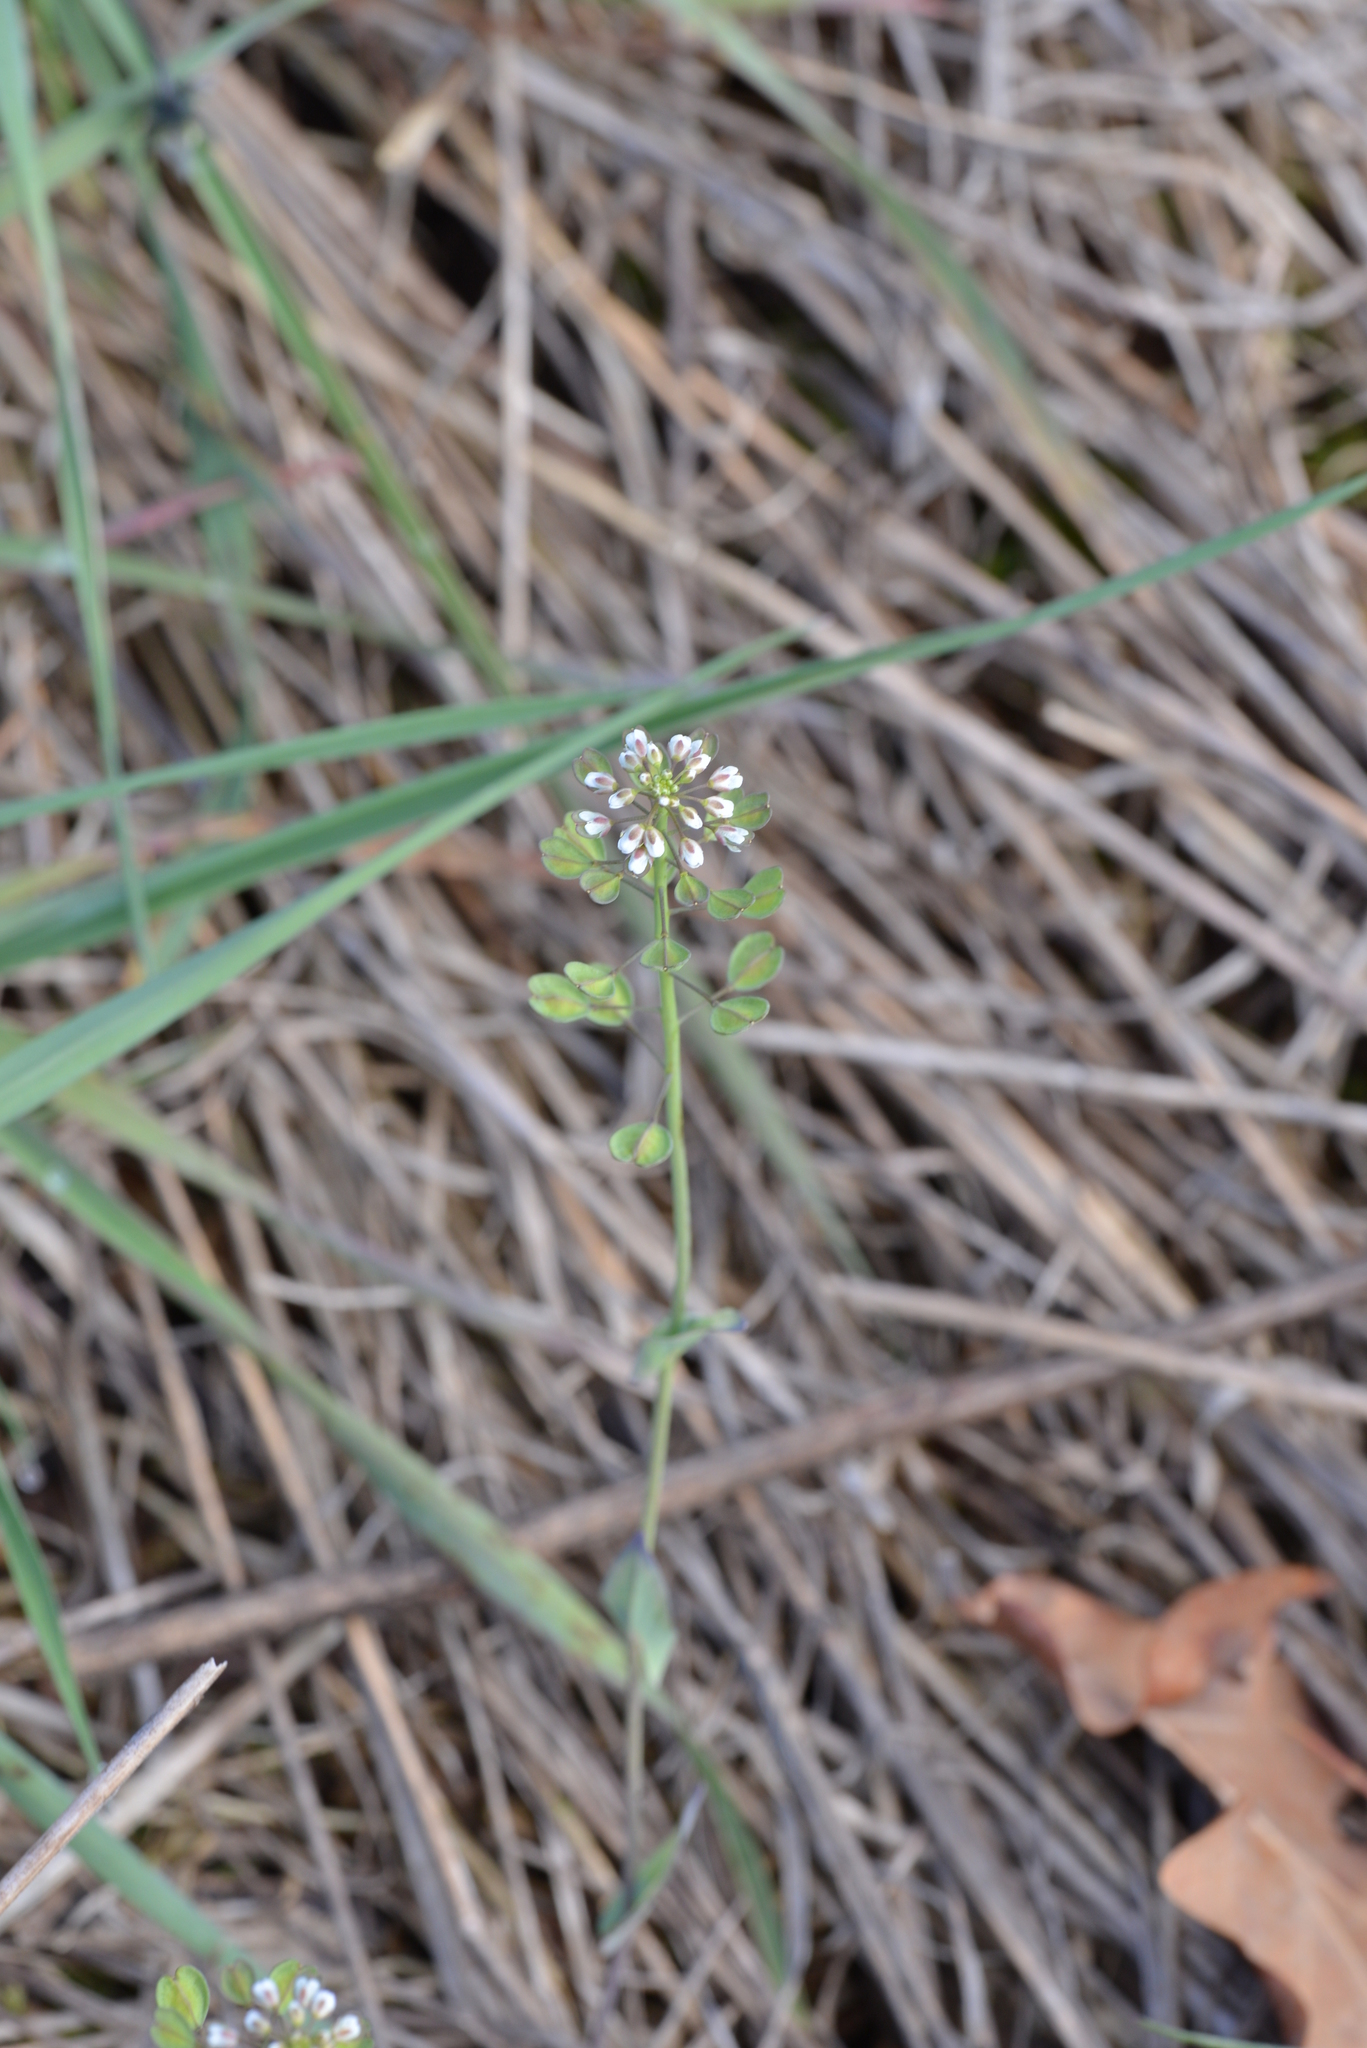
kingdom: Plantae
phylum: Tracheophyta
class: Magnoliopsida
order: Brassicales
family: Brassicaceae
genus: Noccaea
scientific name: Noccaea perfoliata
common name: Perfoliate pennycress
